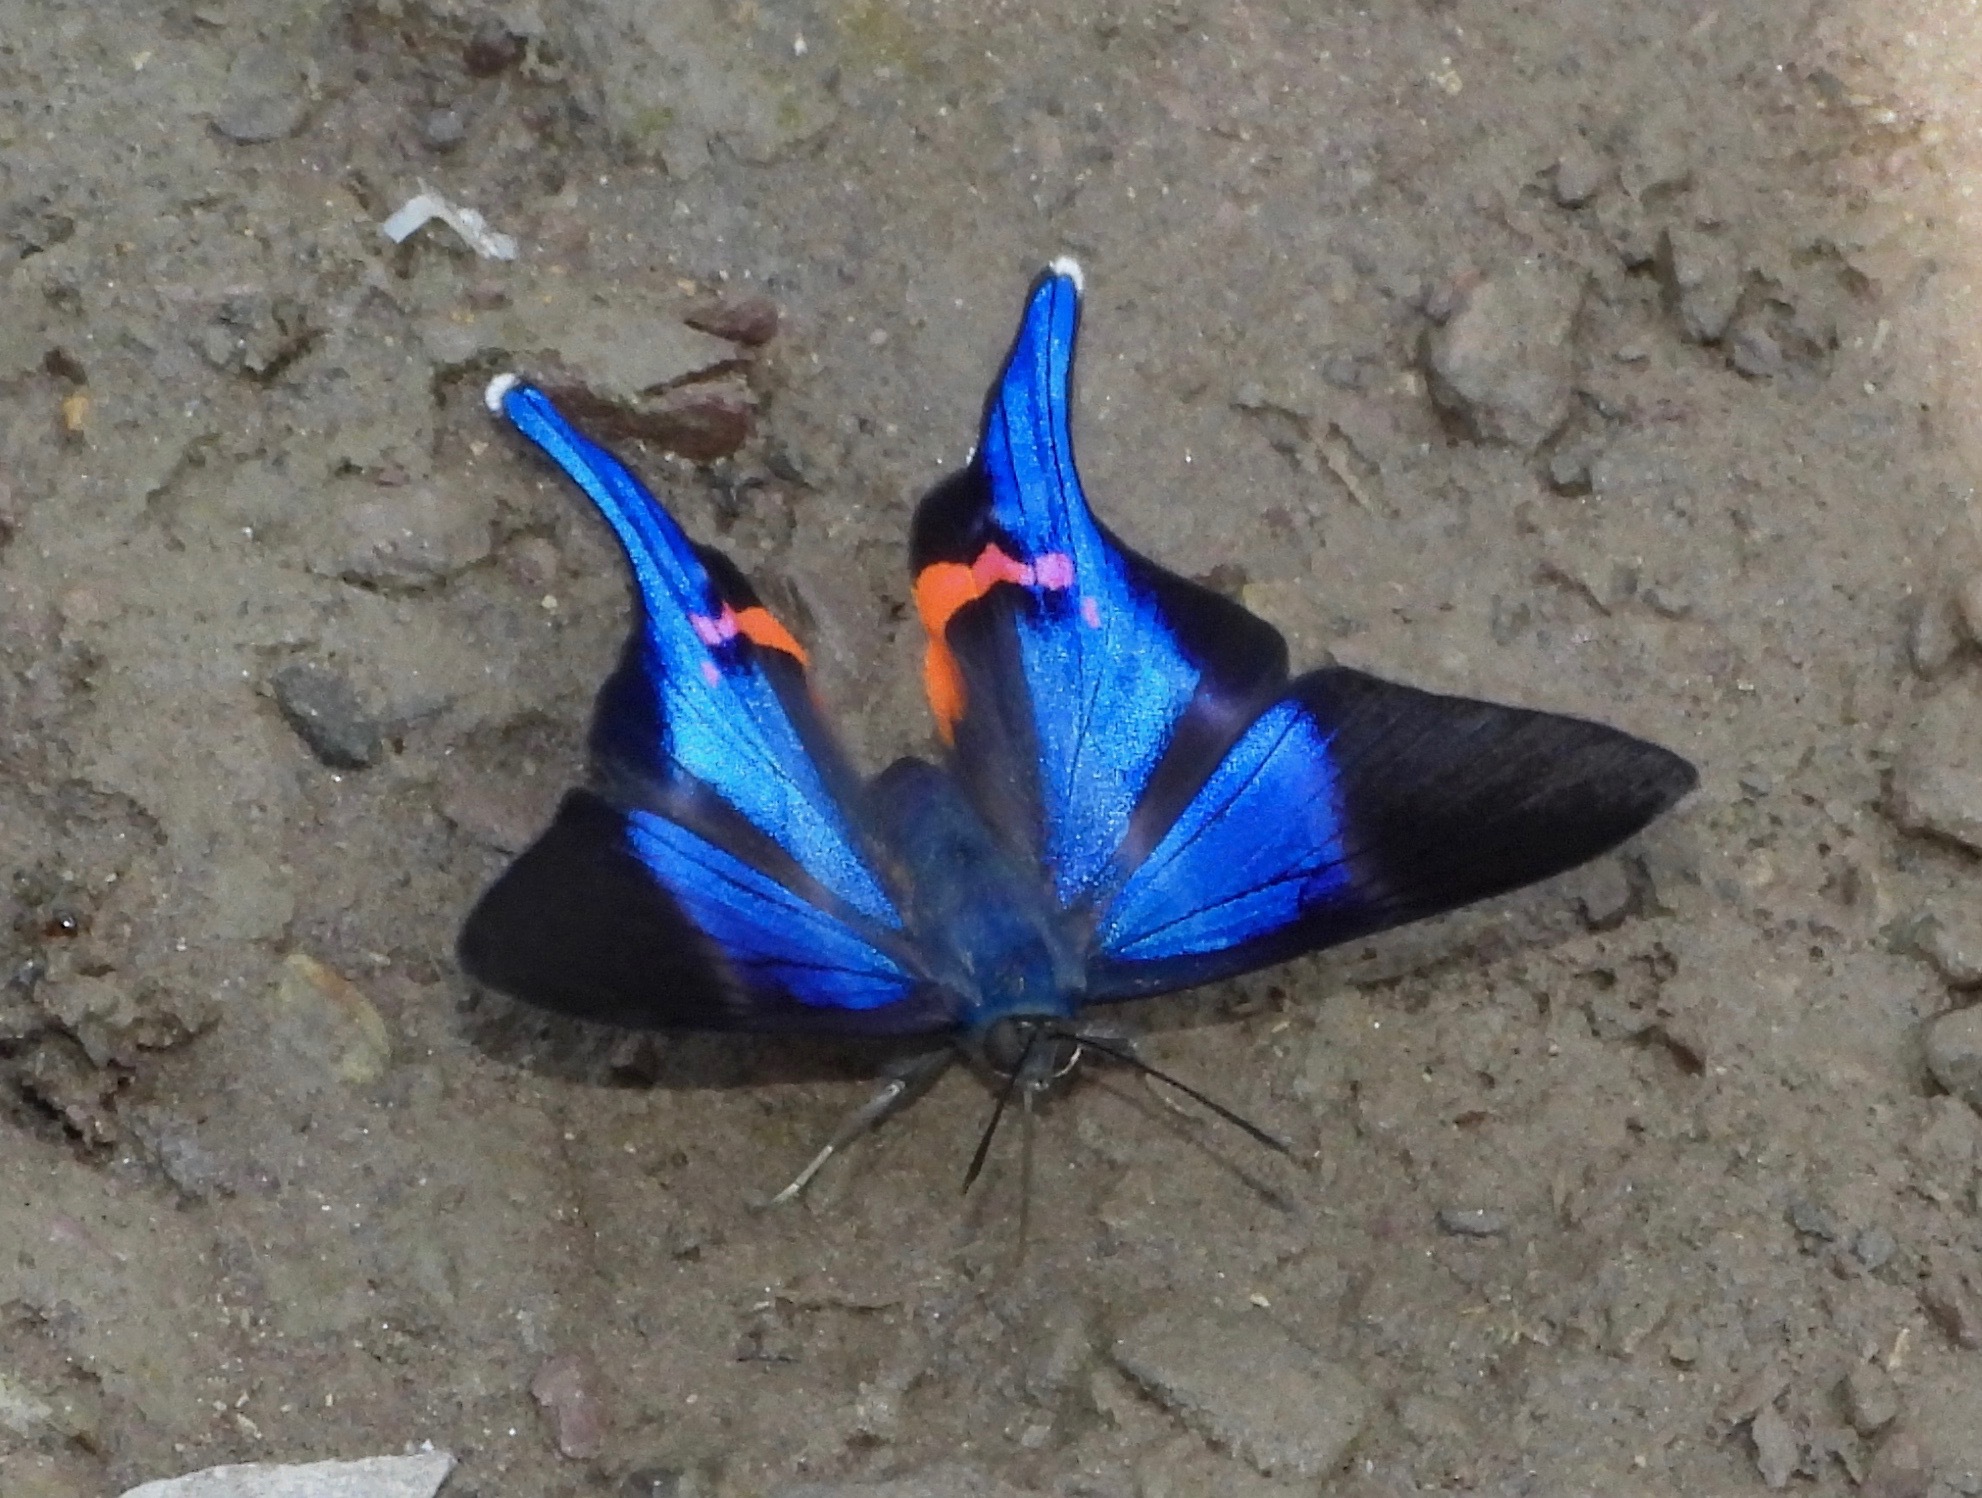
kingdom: Animalia
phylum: Arthropoda
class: Insecta
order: Lepidoptera
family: Riodinidae
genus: Rhetus
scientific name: Rhetus dysonii
